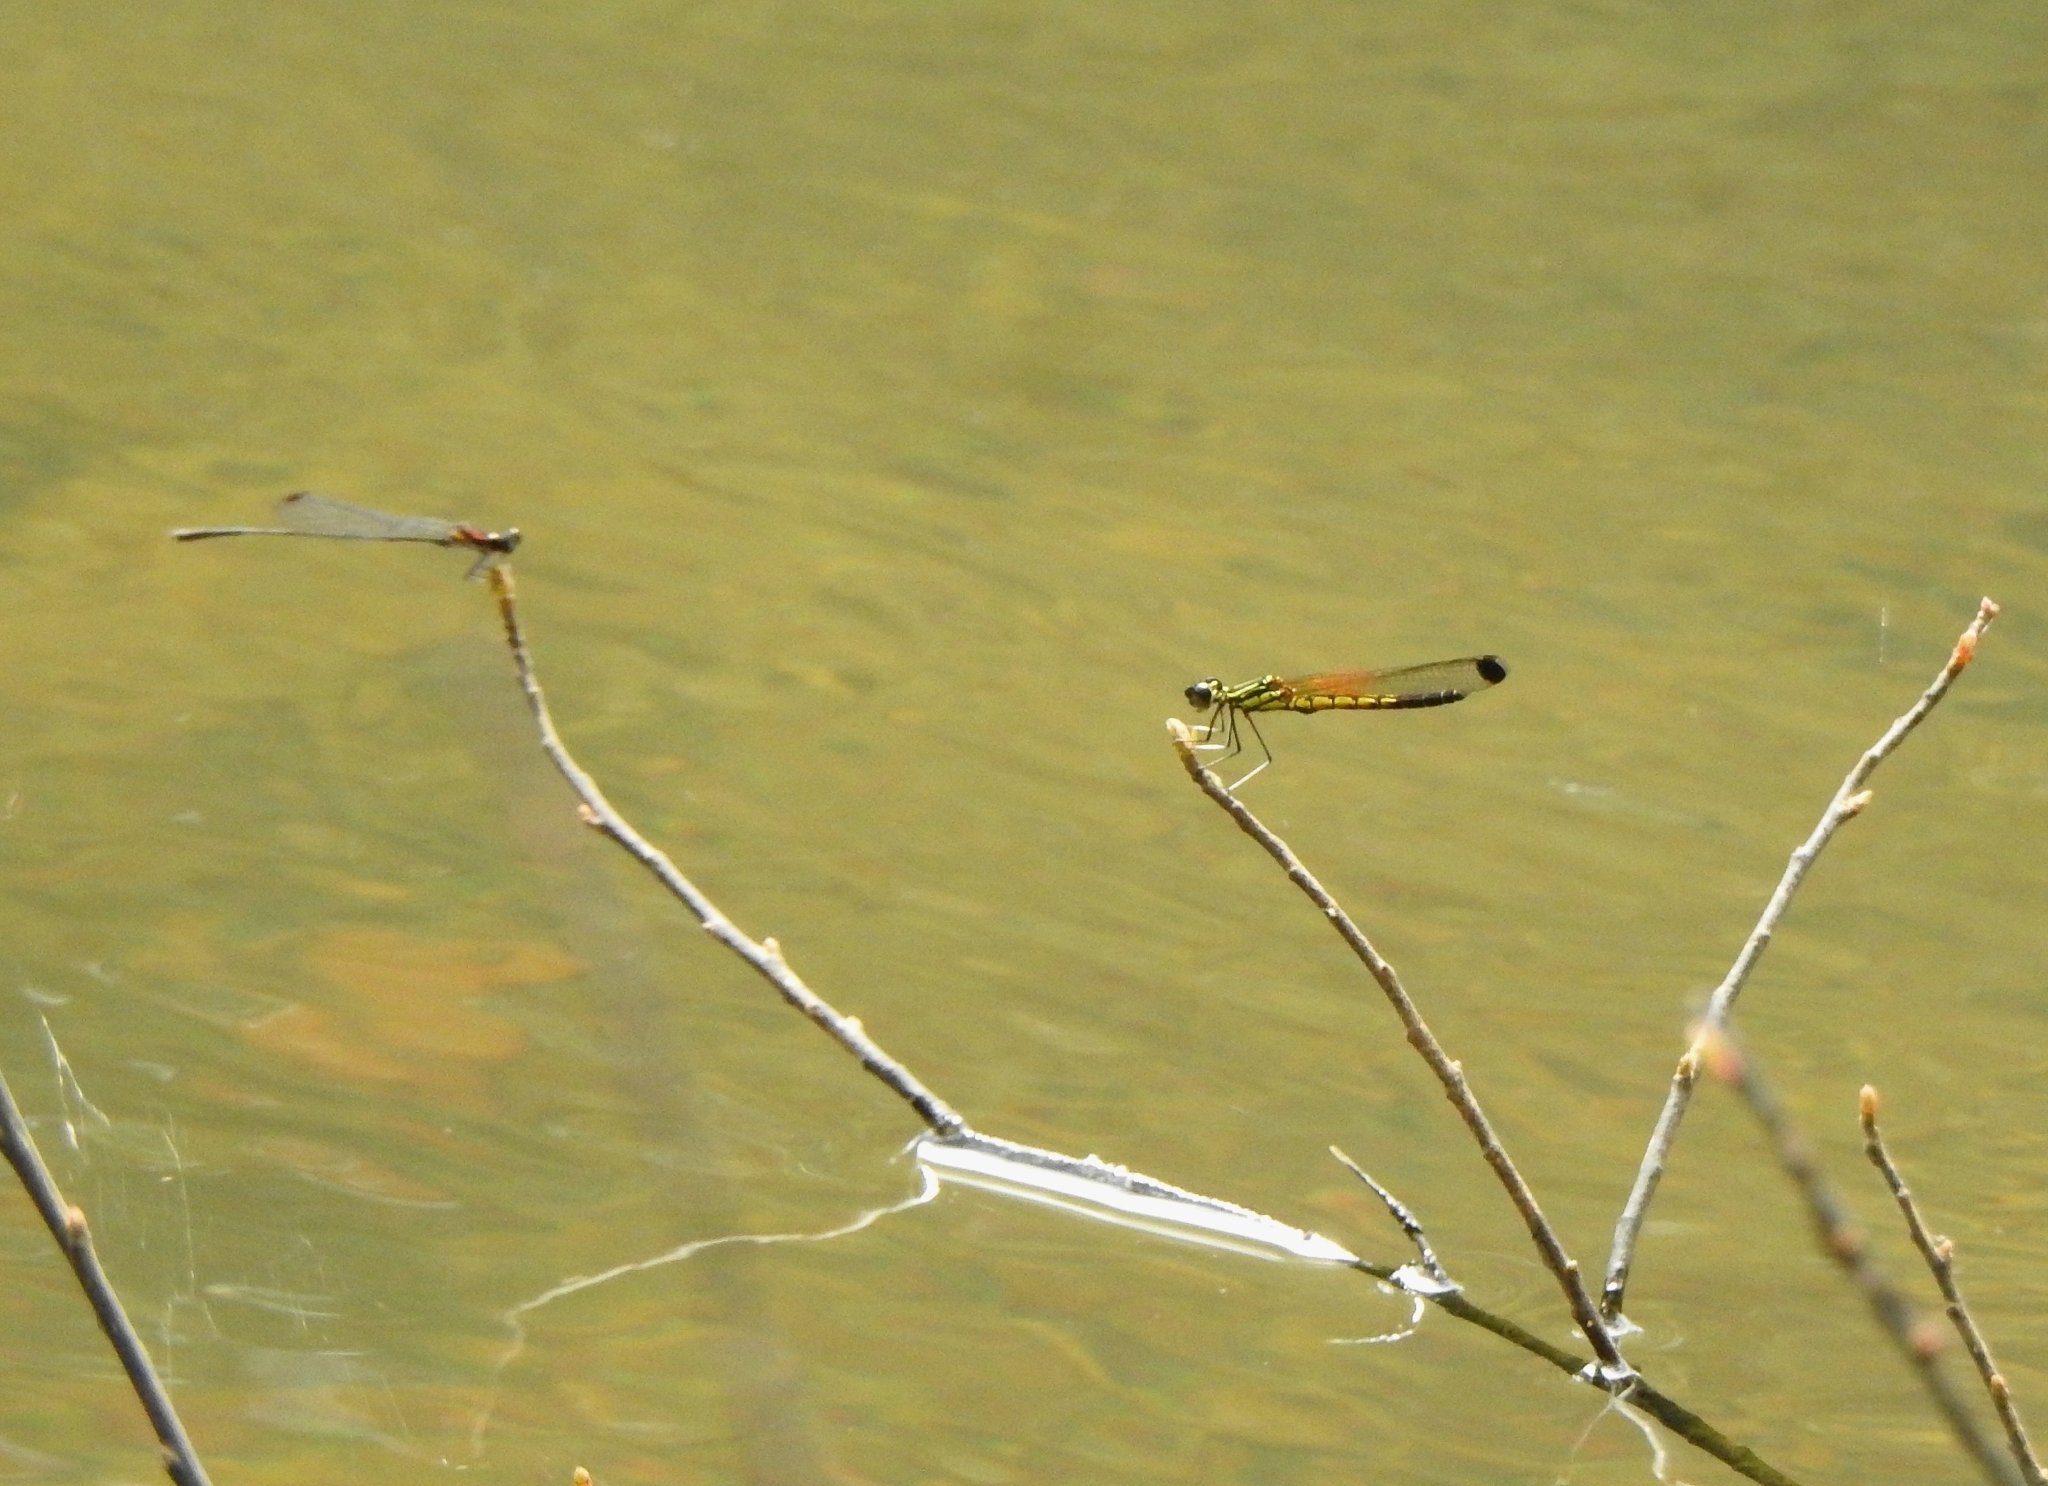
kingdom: Animalia
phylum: Arthropoda
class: Insecta
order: Odonata
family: Chlorocyphidae
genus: Libellago
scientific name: Libellago indica
